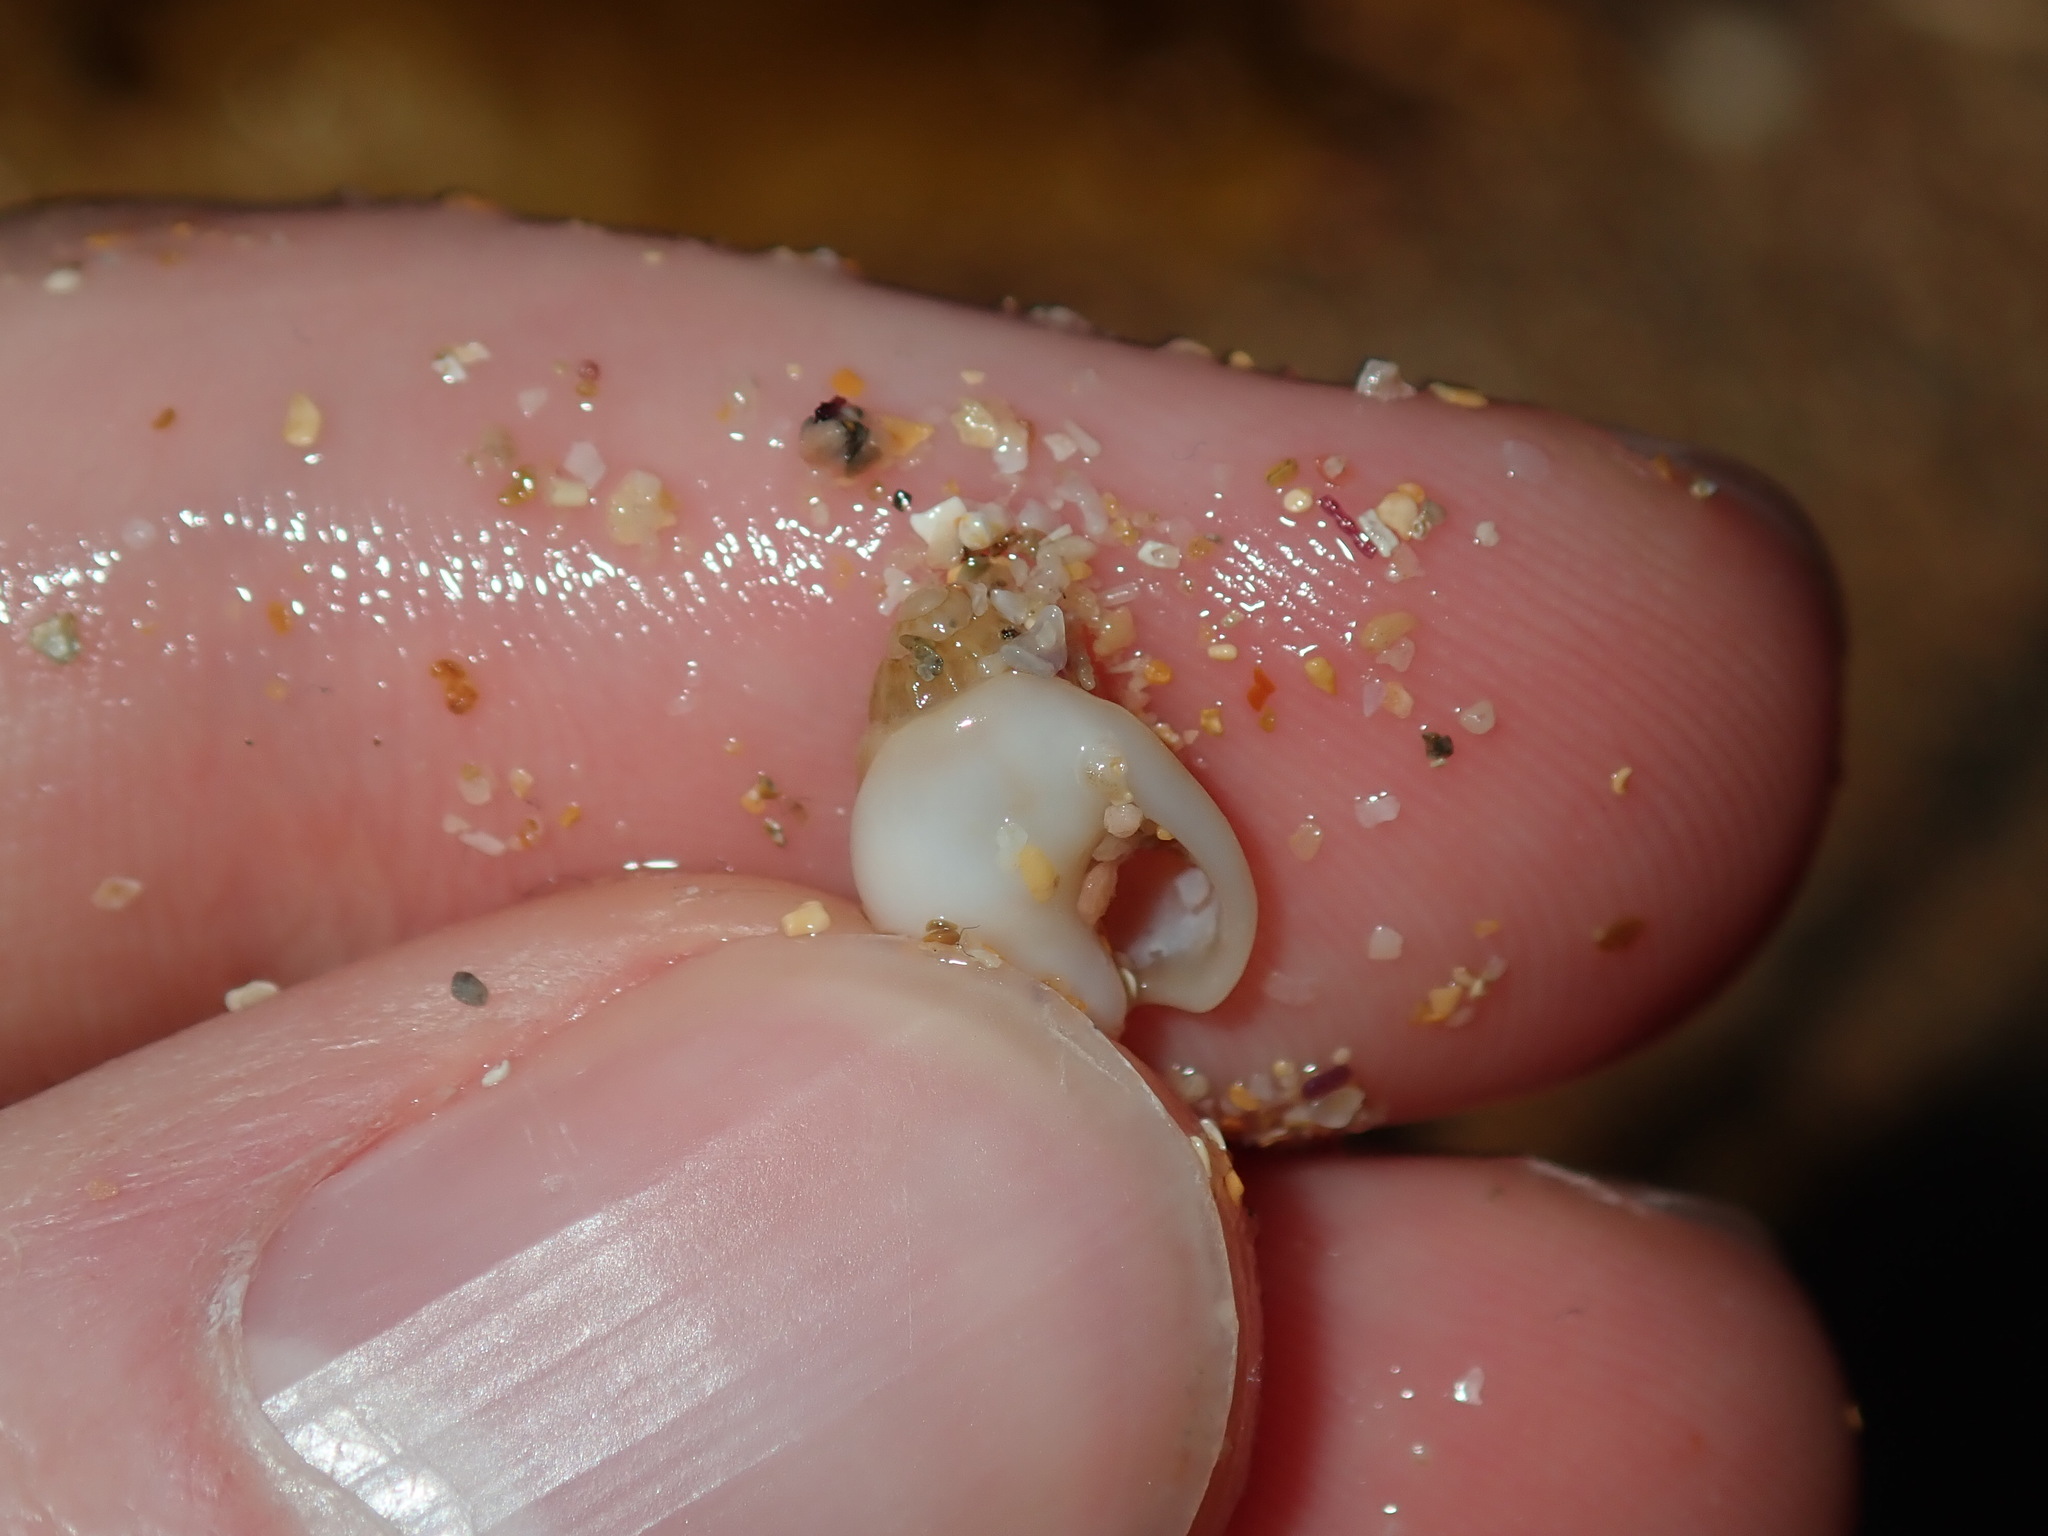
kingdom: Animalia
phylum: Mollusca
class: Gastropoda
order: Neogastropoda
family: Nassariidae
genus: Nassarius
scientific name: Nassarius jonasii
